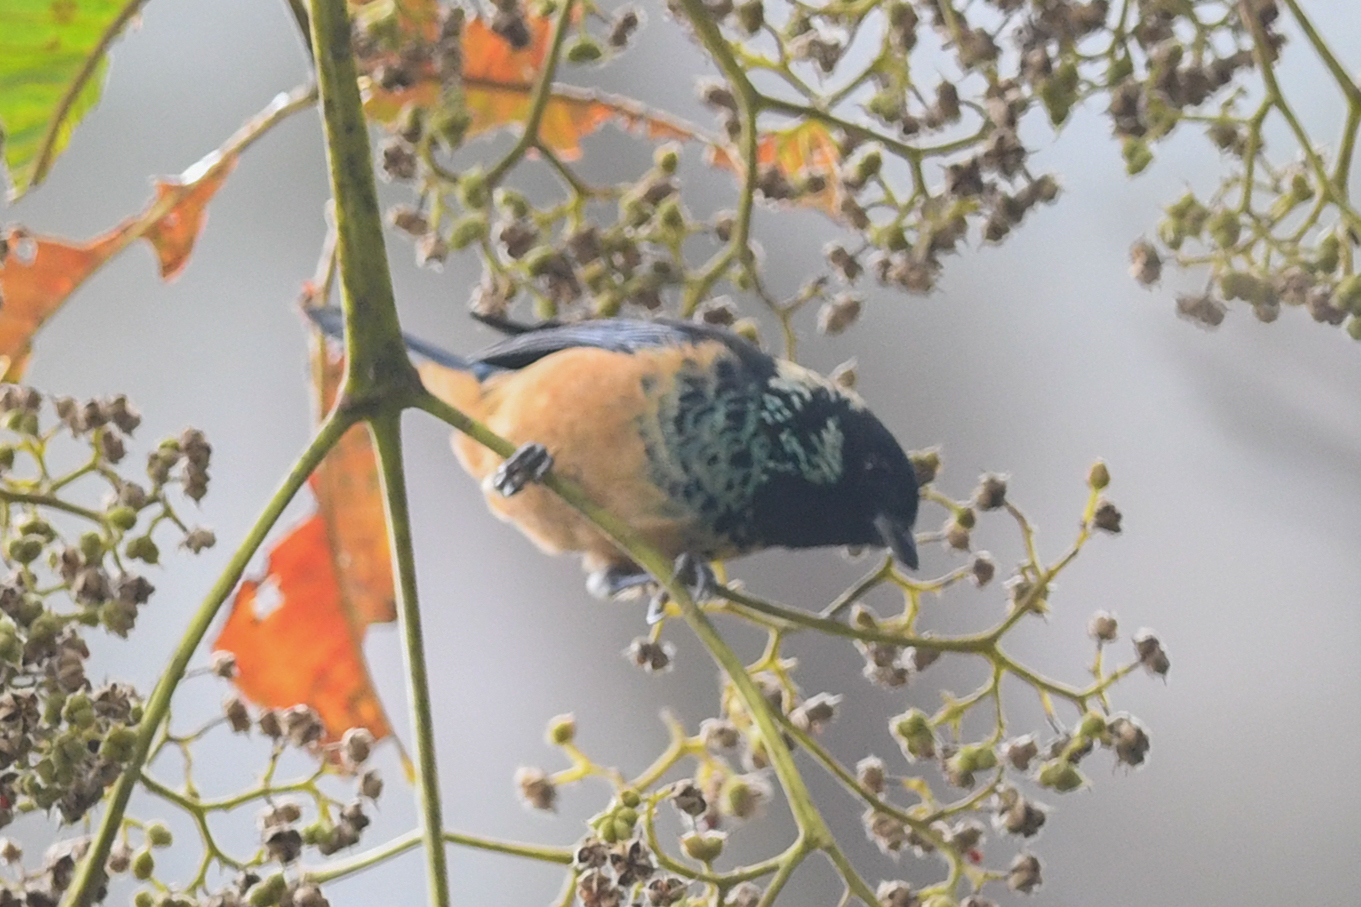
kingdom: Animalia
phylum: Chordata
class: Aves
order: Passeriformes
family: Thraupidae
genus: Tangara
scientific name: Tangara dowii
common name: Spangle-cheeked tanager
